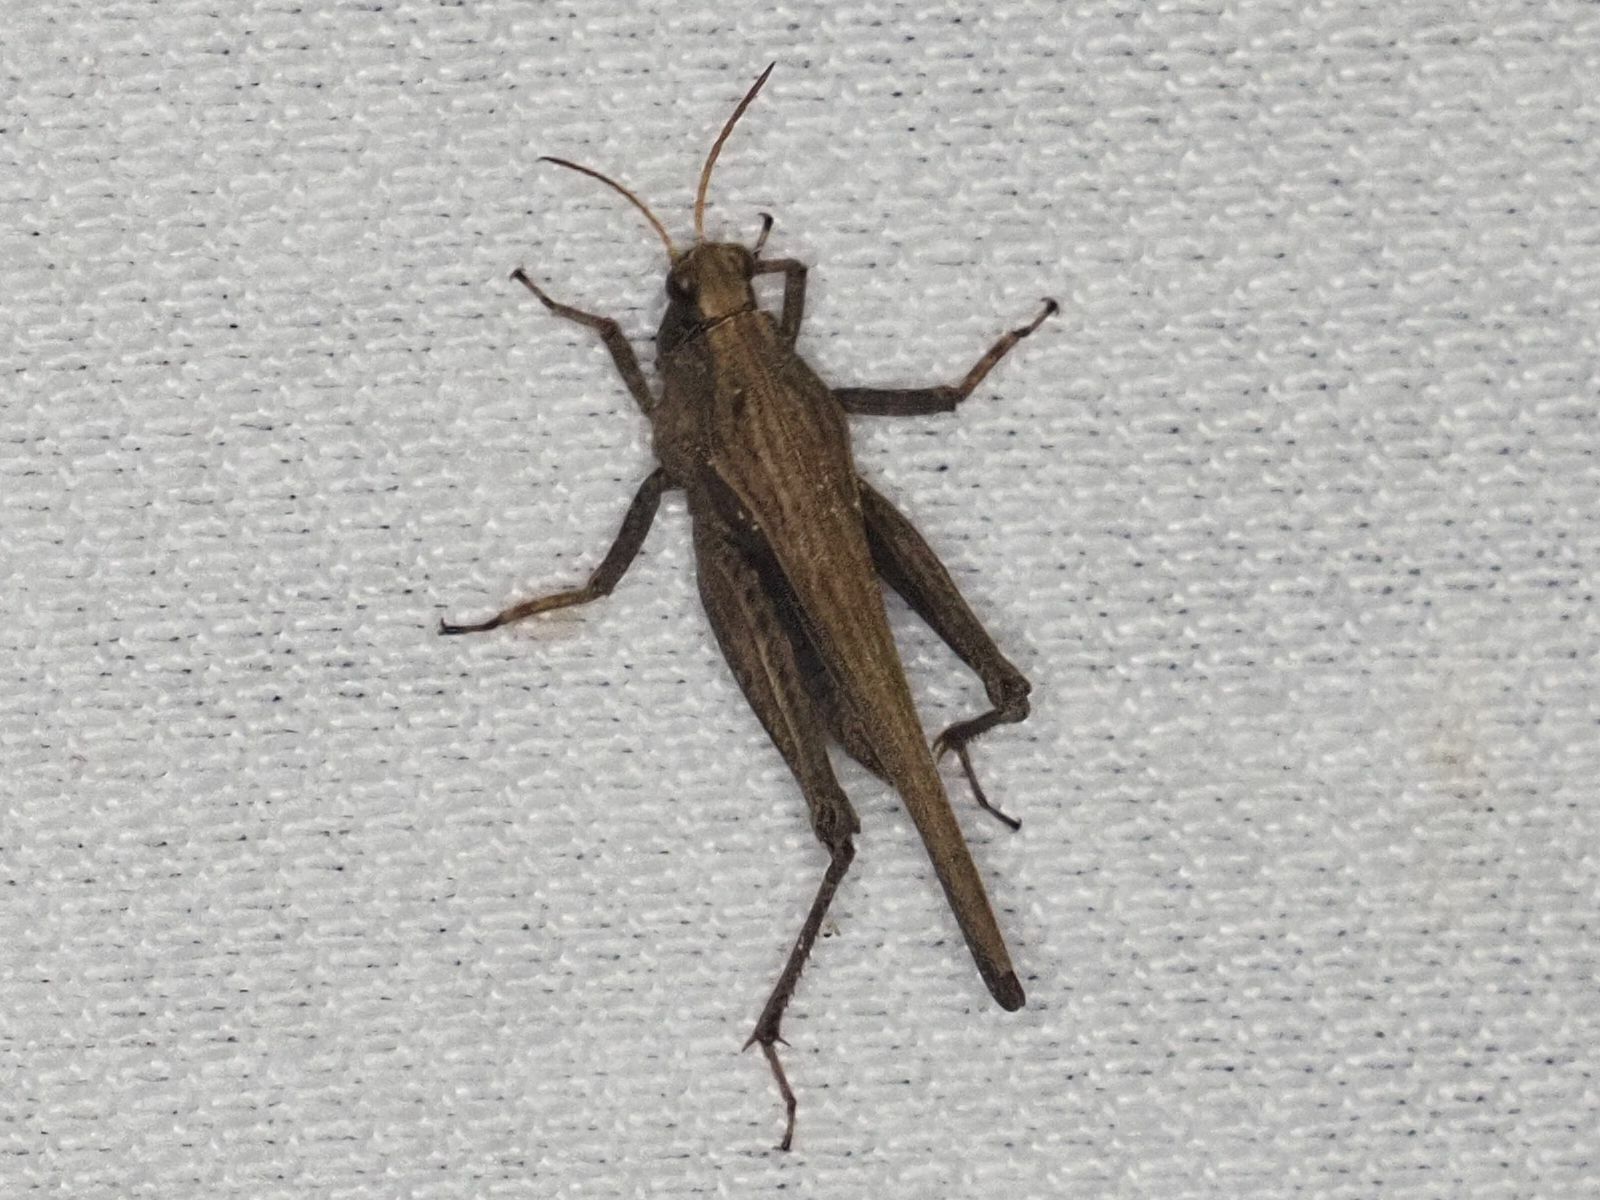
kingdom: Animalia
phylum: Arthropoda
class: Insecta
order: Orthoptera
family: Tetrigidae
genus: Tetrix
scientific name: Tetrix subulata
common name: Slender ground-hopper
